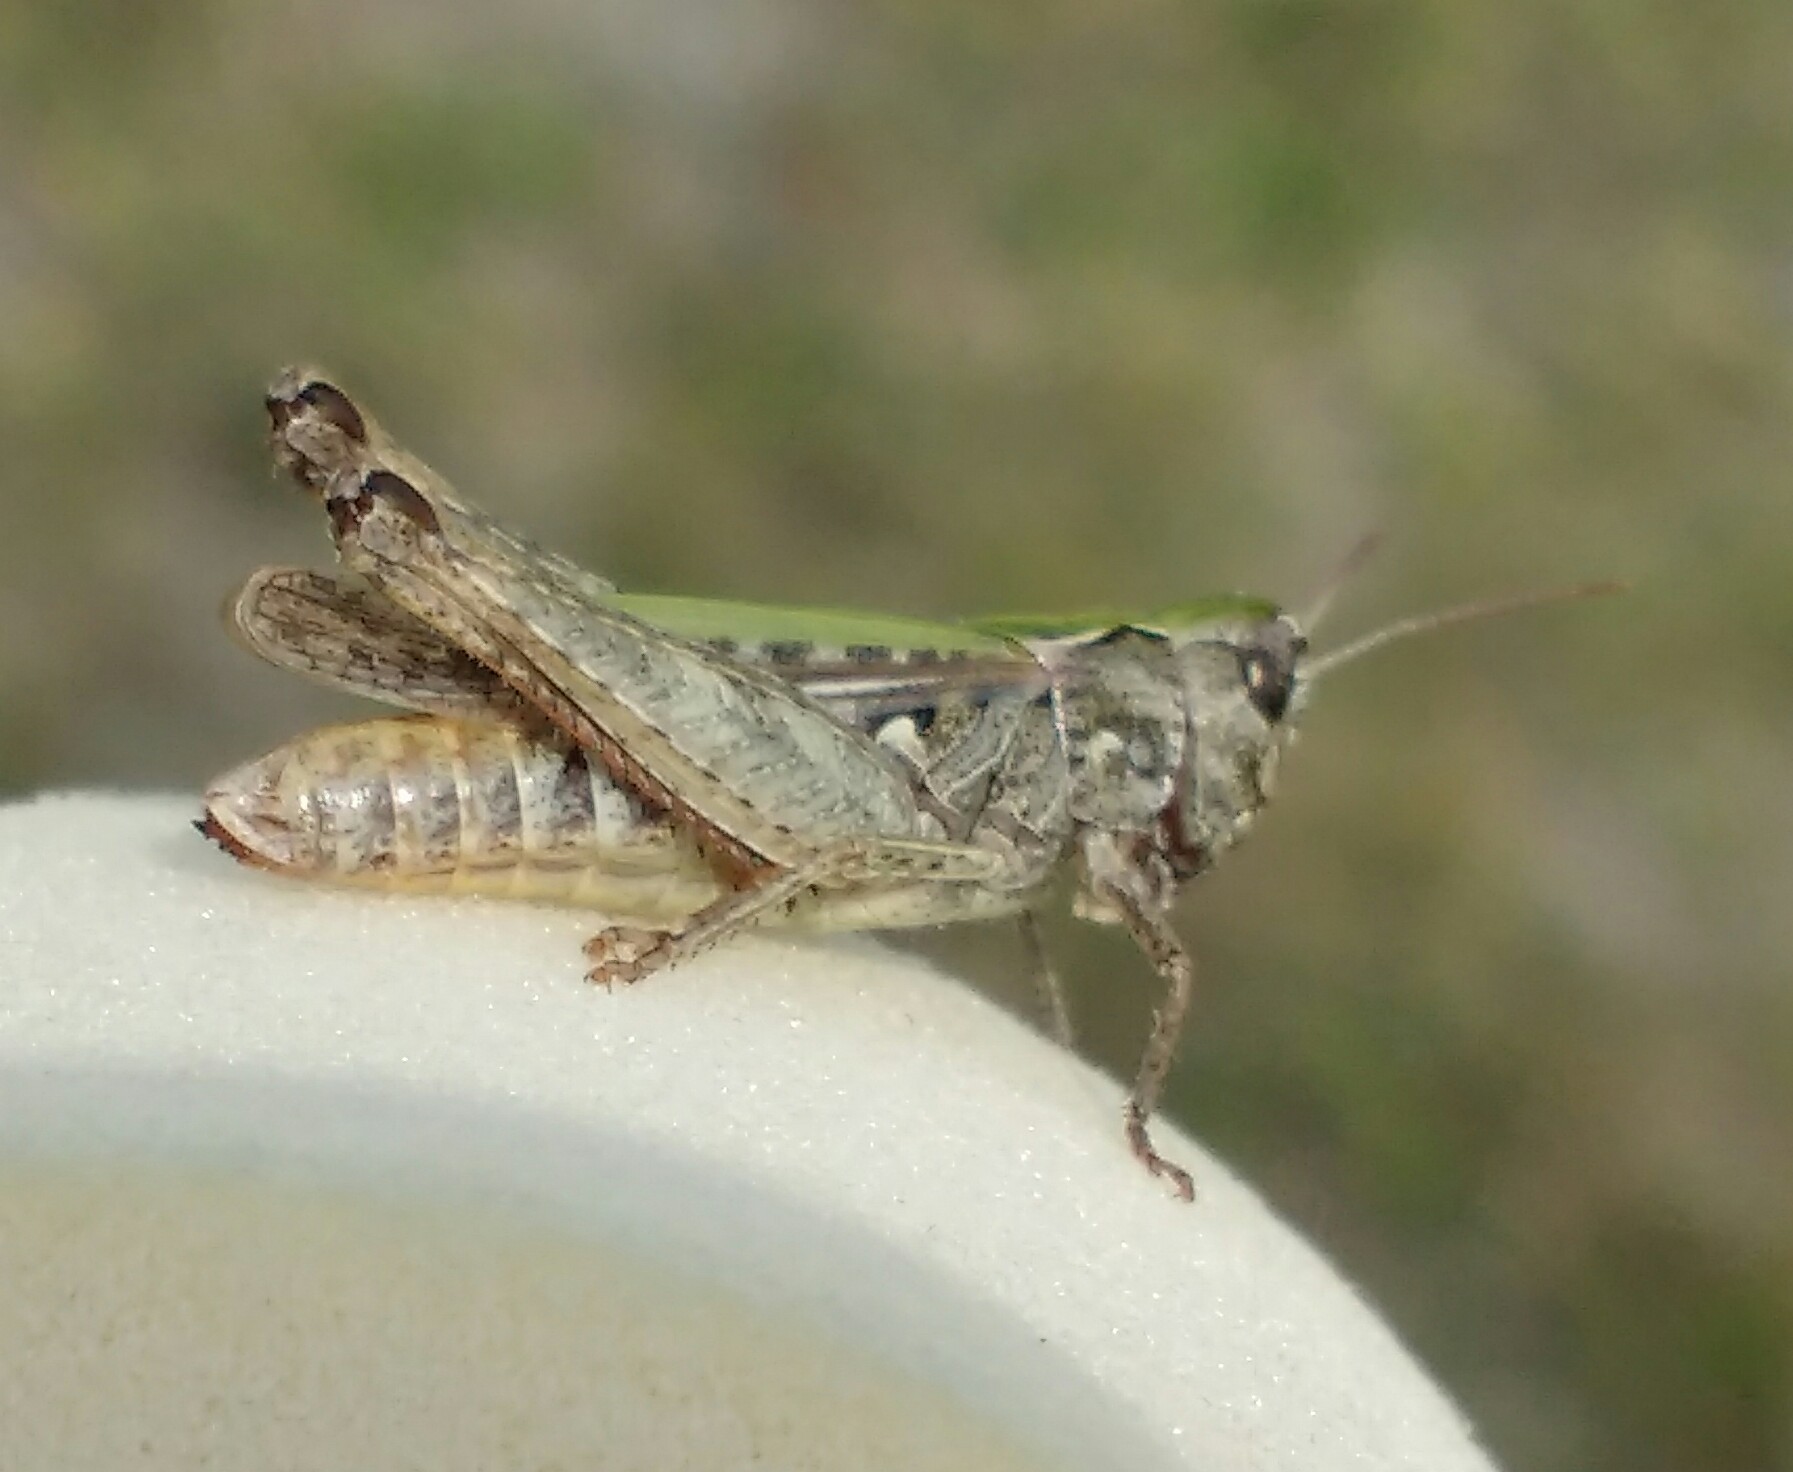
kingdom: Animalia
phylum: Arthropoda
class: Insecta
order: Orthoptera
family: Acrididae
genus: Omocestus
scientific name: Omocestus haemorrhoidalis
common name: Orange-tipped grasshopper
